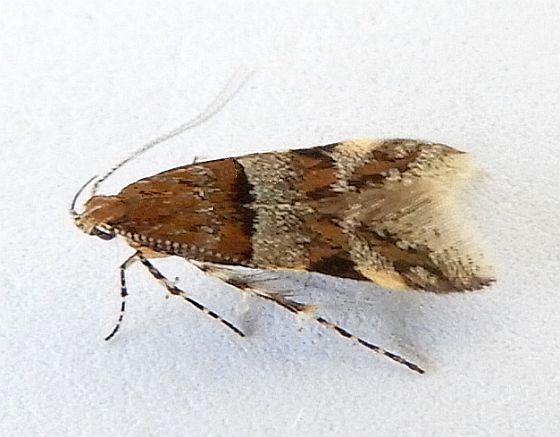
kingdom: Animalia
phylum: Arthropoda
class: Insecta
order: Lepidoptera
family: Gelechiidae
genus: Theisoa
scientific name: Theisoa multifasciella
